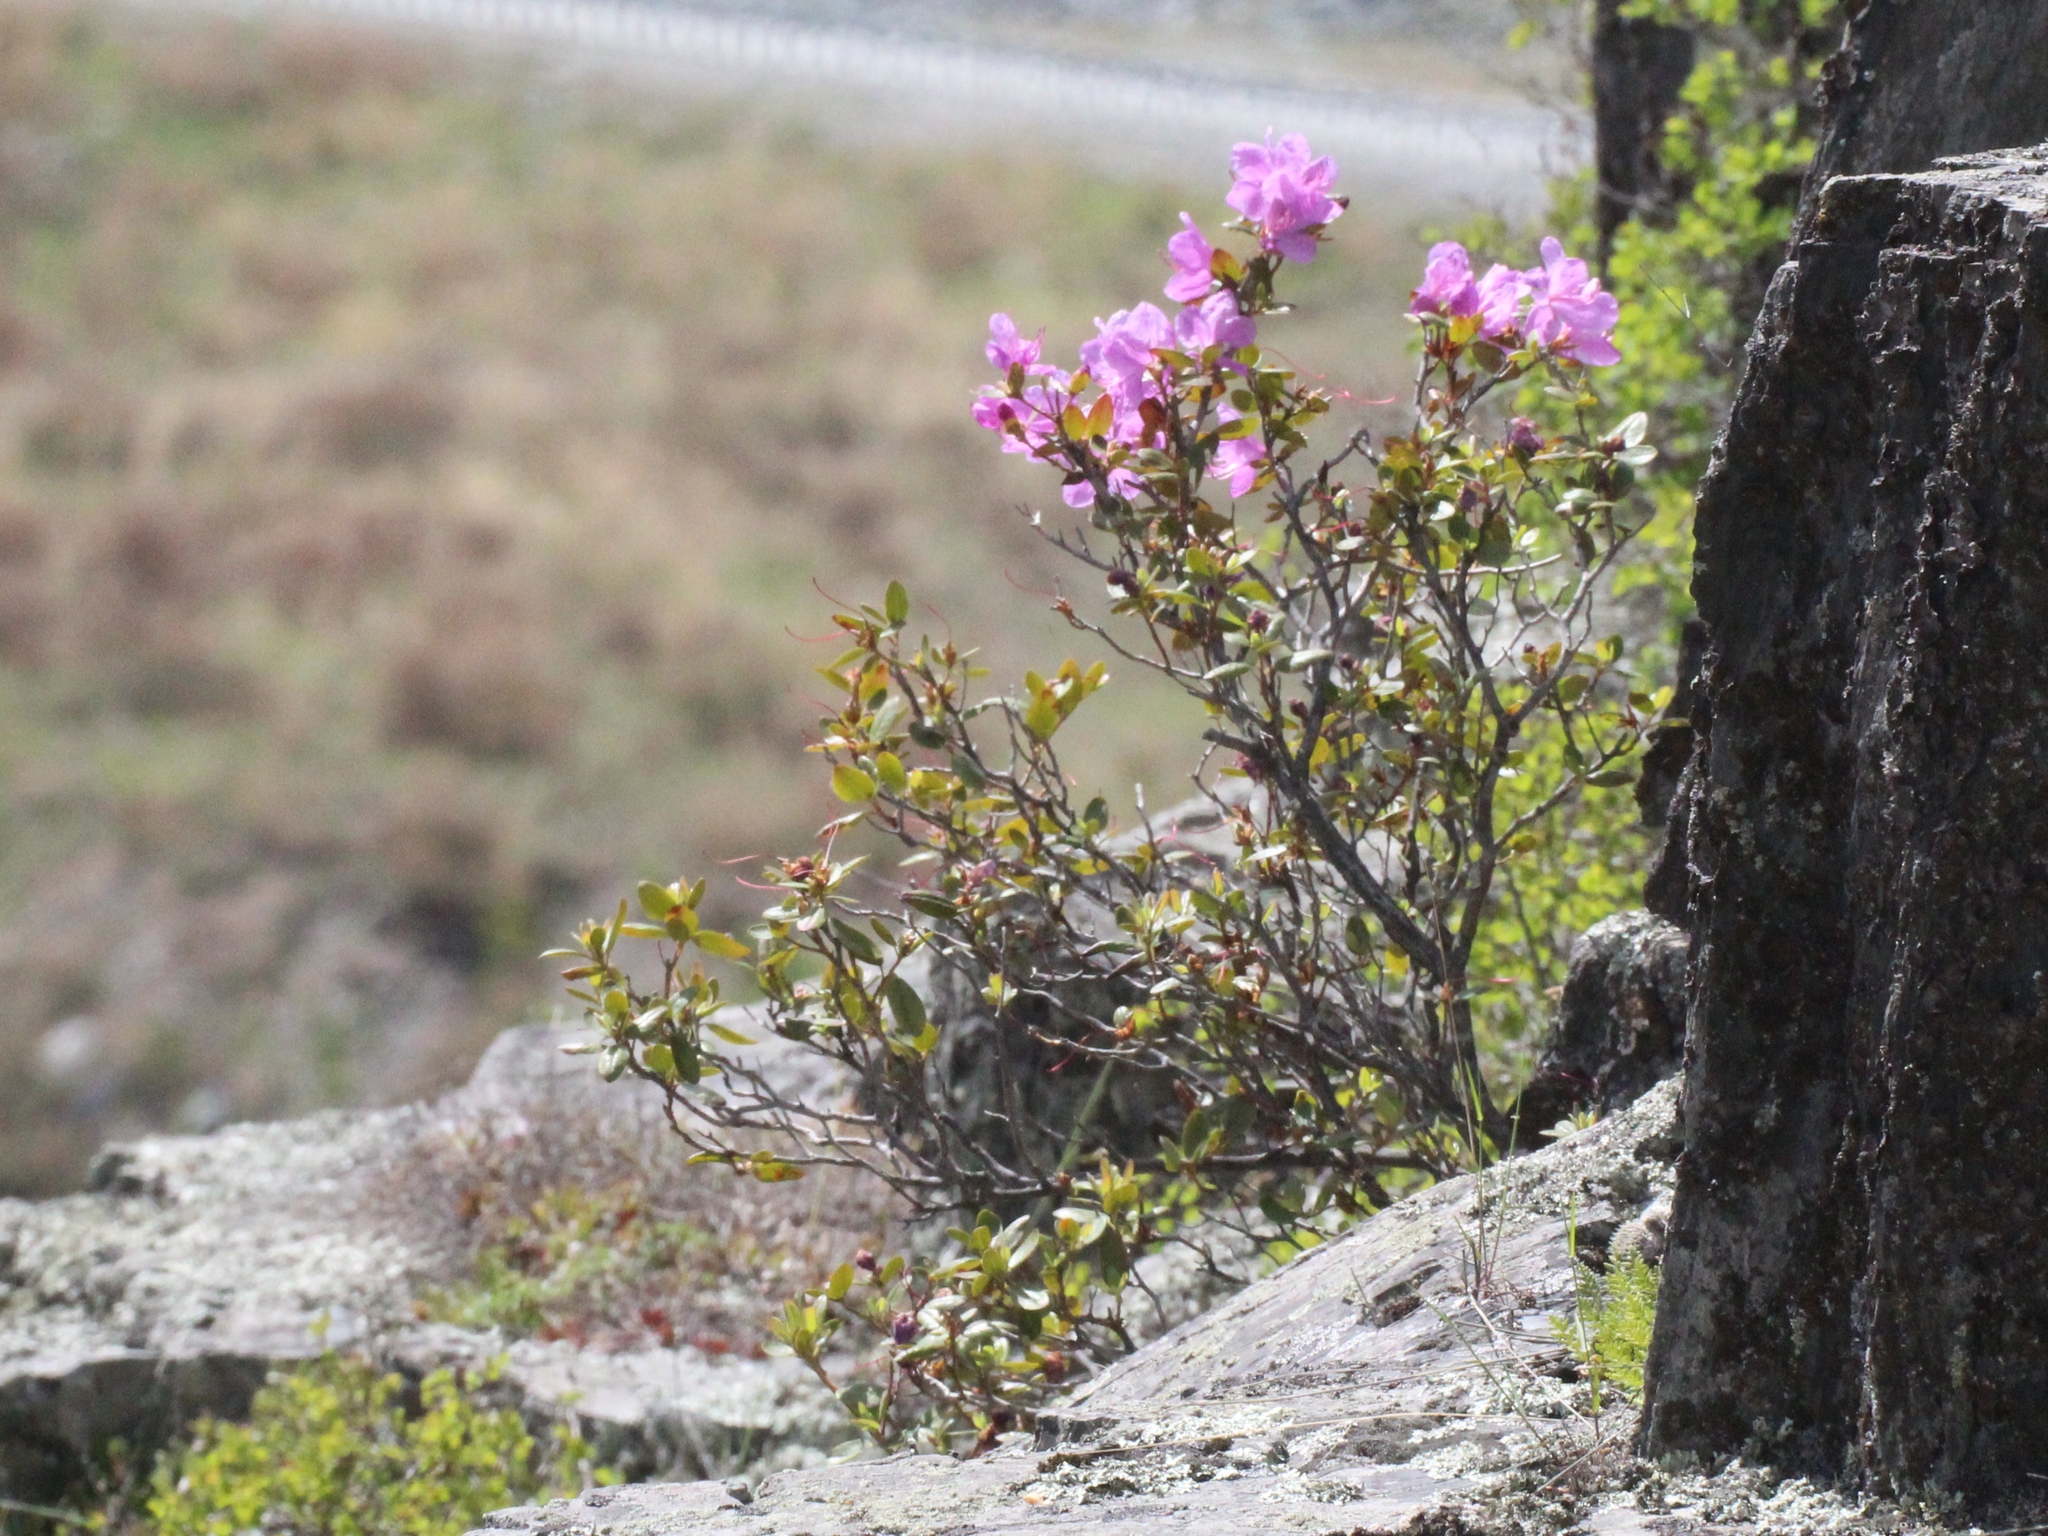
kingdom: Plantae
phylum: Tracheophyta
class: Magnoliopsida
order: Ericales
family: Ericaceae
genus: Rhododendron
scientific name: Rhododendron dauricum
